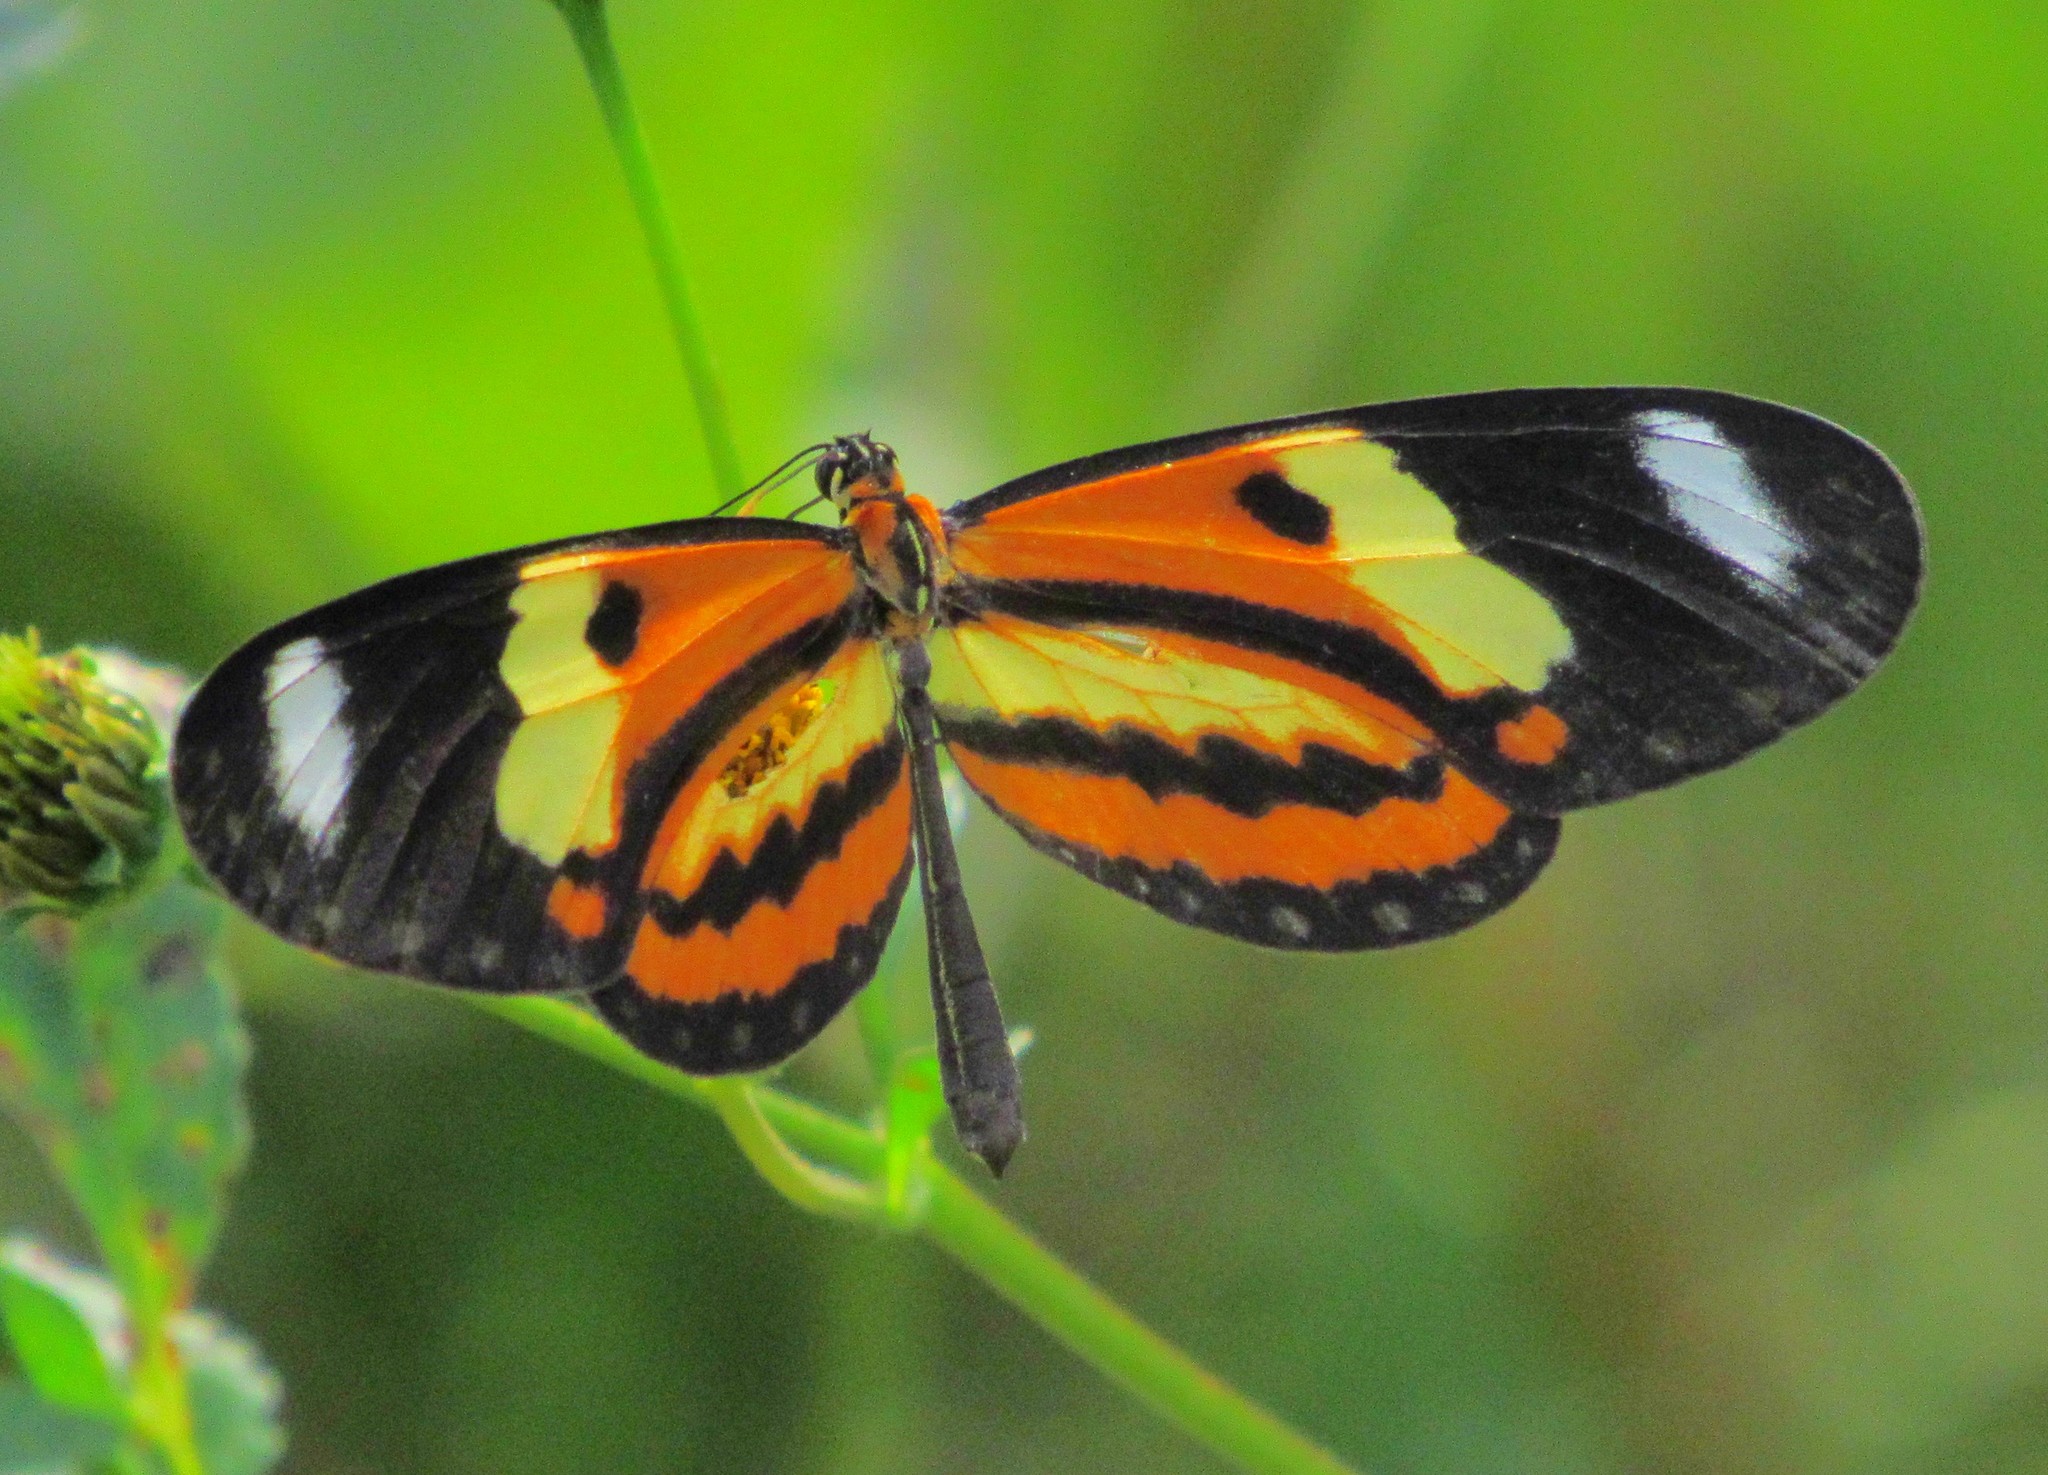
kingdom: Animalia
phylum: Arthropoda
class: Insecta
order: Lepidoptera
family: Nymphalidae
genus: Mechanitis
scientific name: Mechanitis lysimnia
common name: Lysimnia tigerwing
